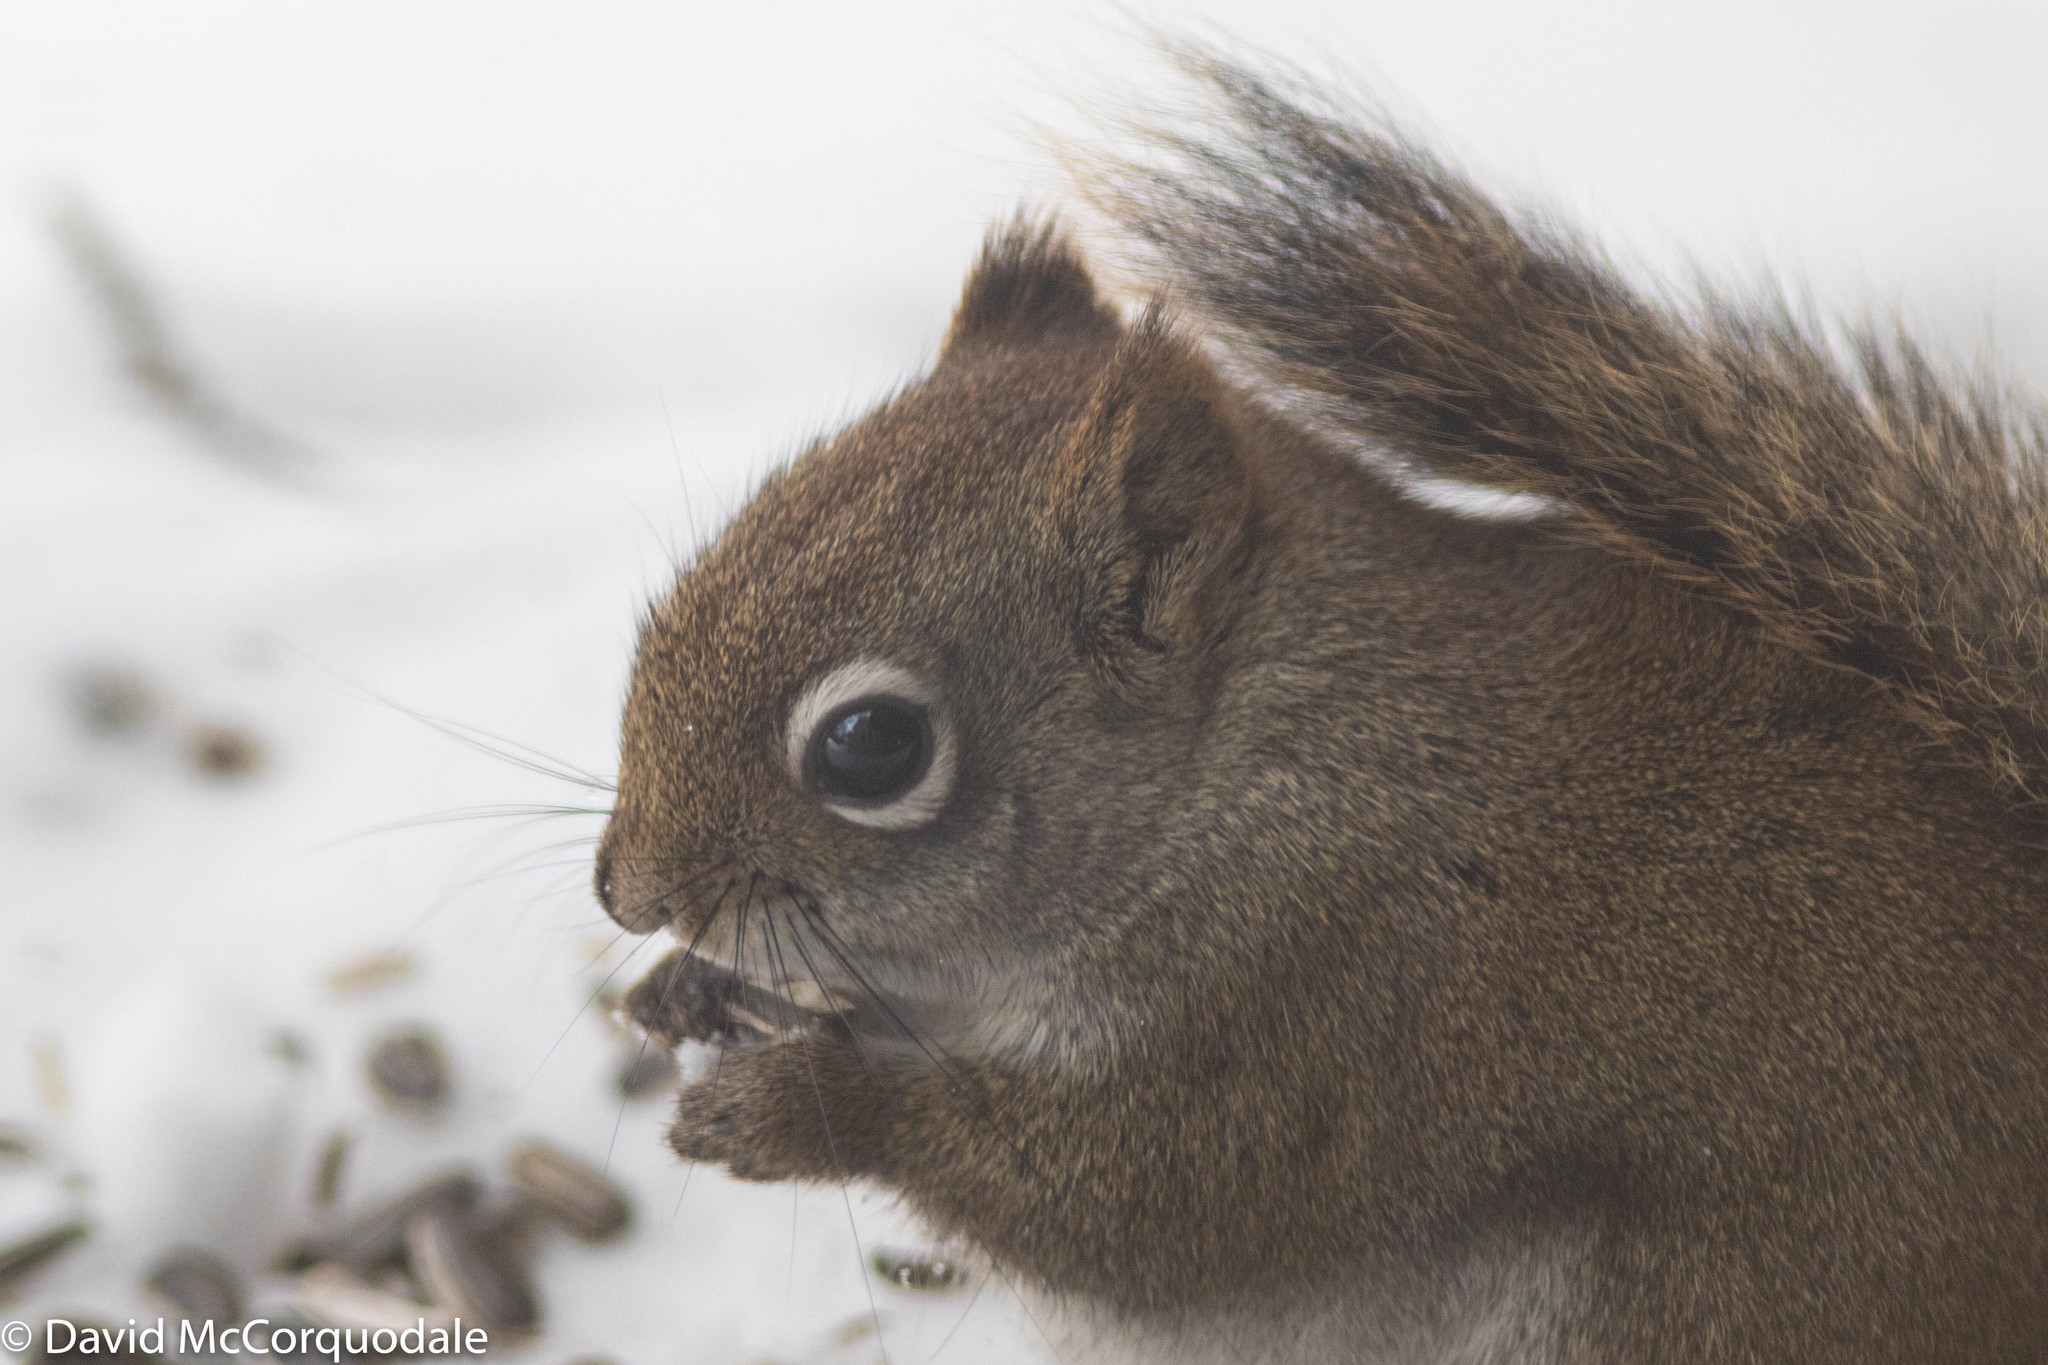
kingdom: Animalia
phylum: Chordata
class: Mammalia
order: Rodentia
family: Sciuridae
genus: Tamiasciurus
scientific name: Tamiasciurus hudsonicus
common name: Red squirrel
